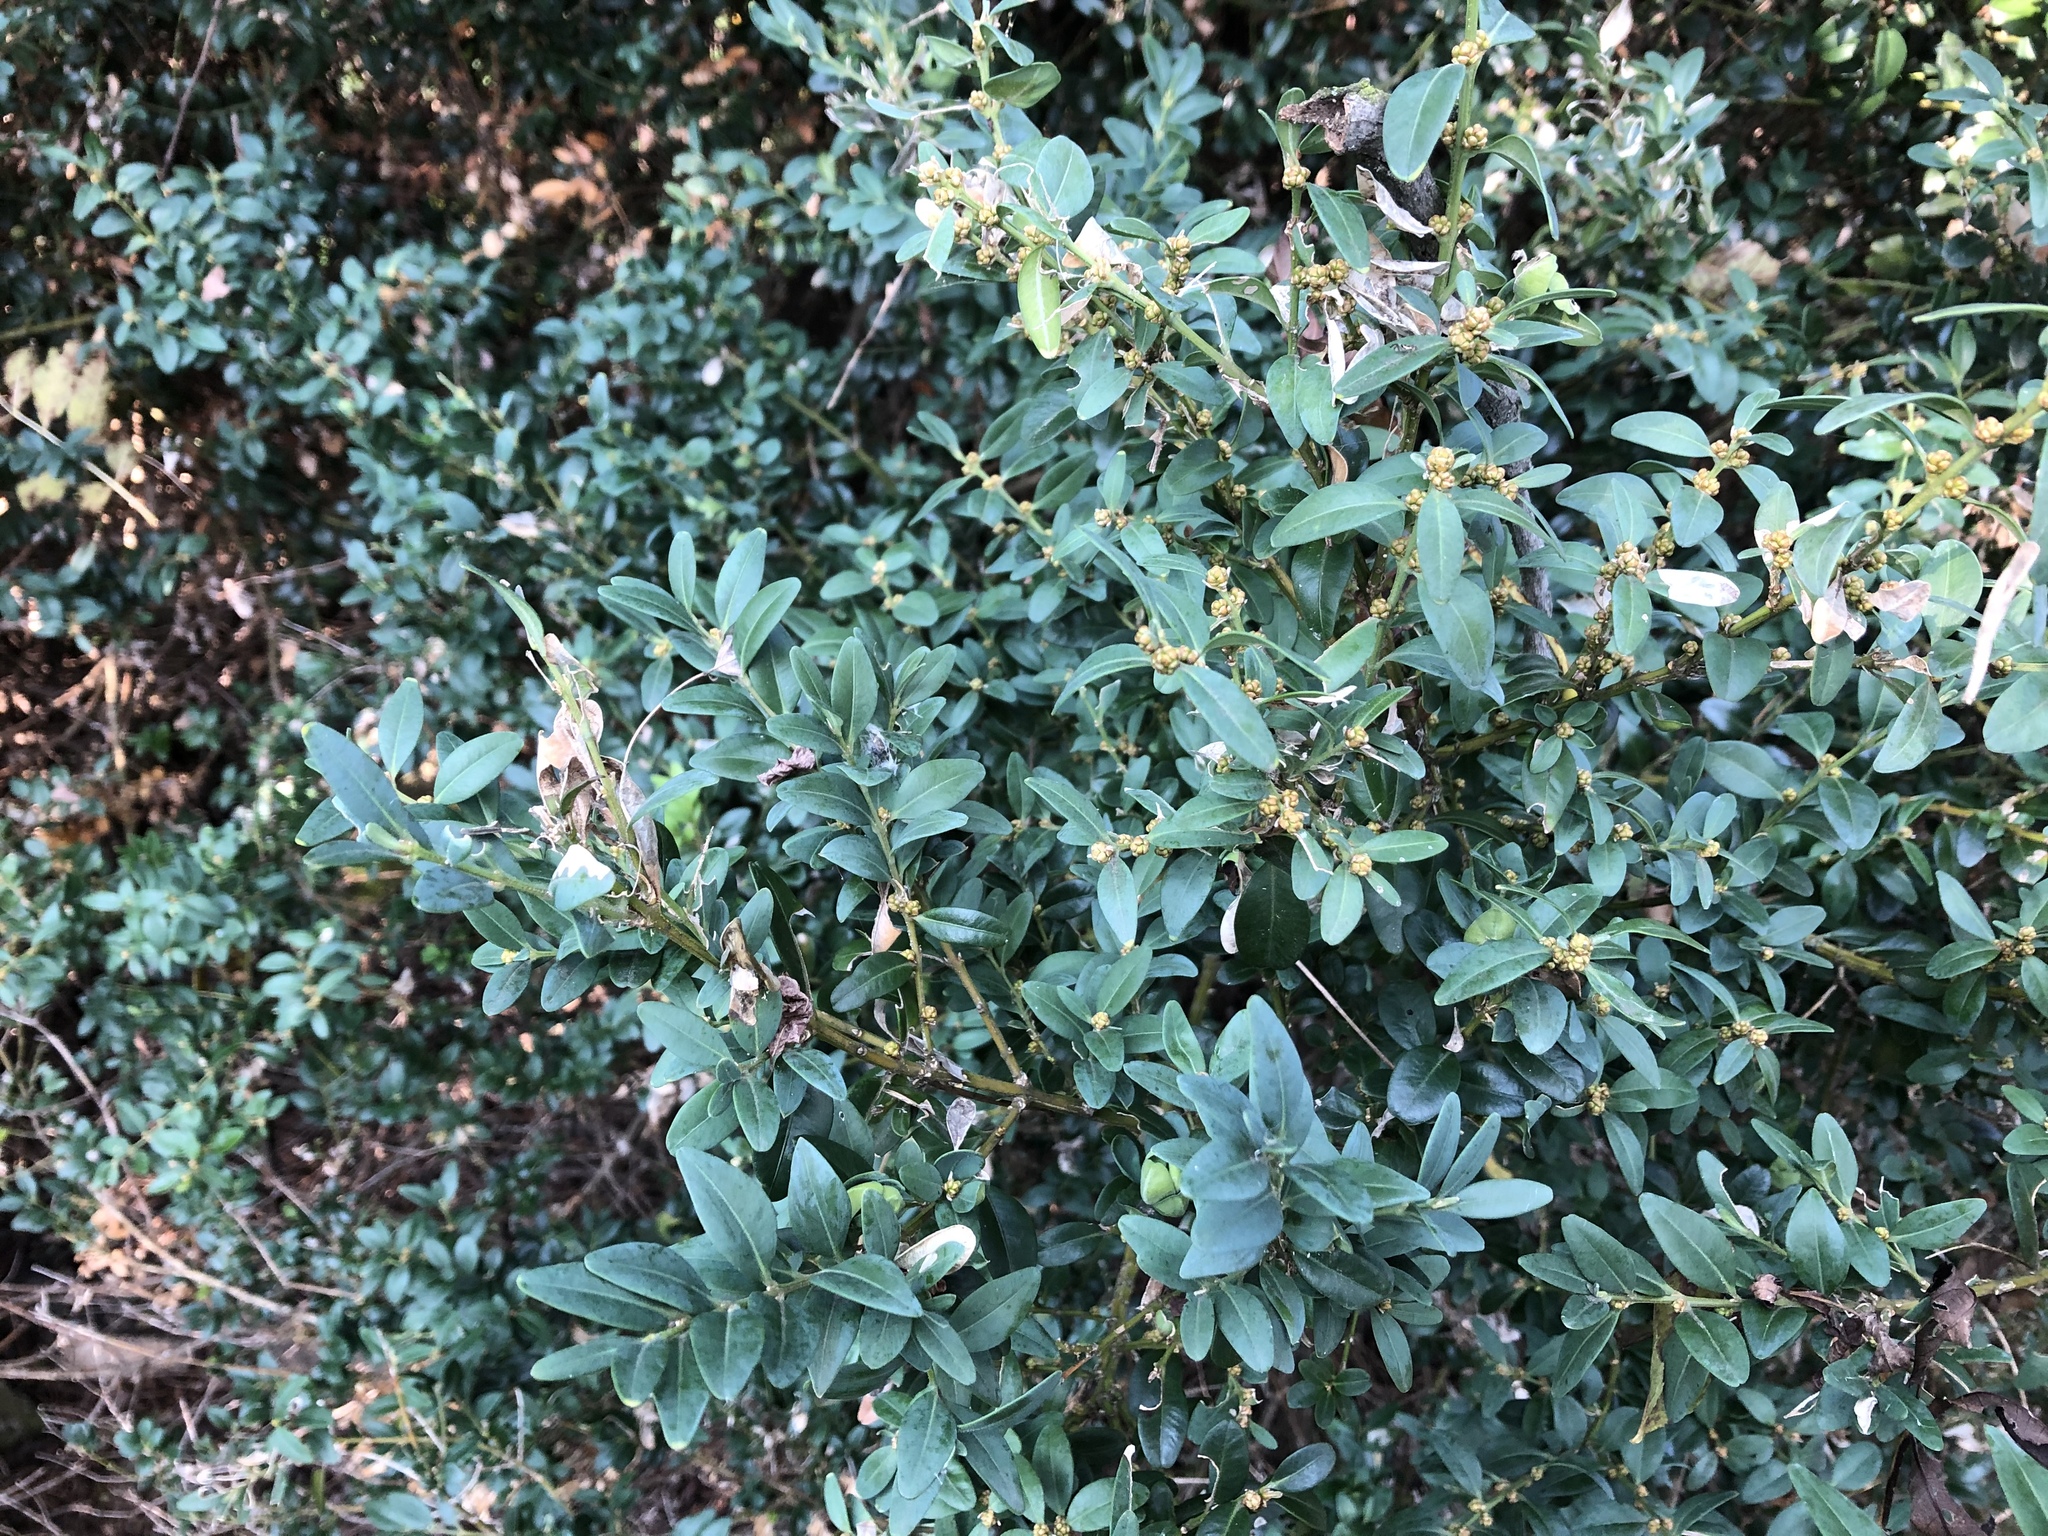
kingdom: Plantae
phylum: Tracheophyta
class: Magnoliopsida
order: Buxales
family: Buxaceae
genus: Buxus
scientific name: Buxus sempervirens
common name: Box
